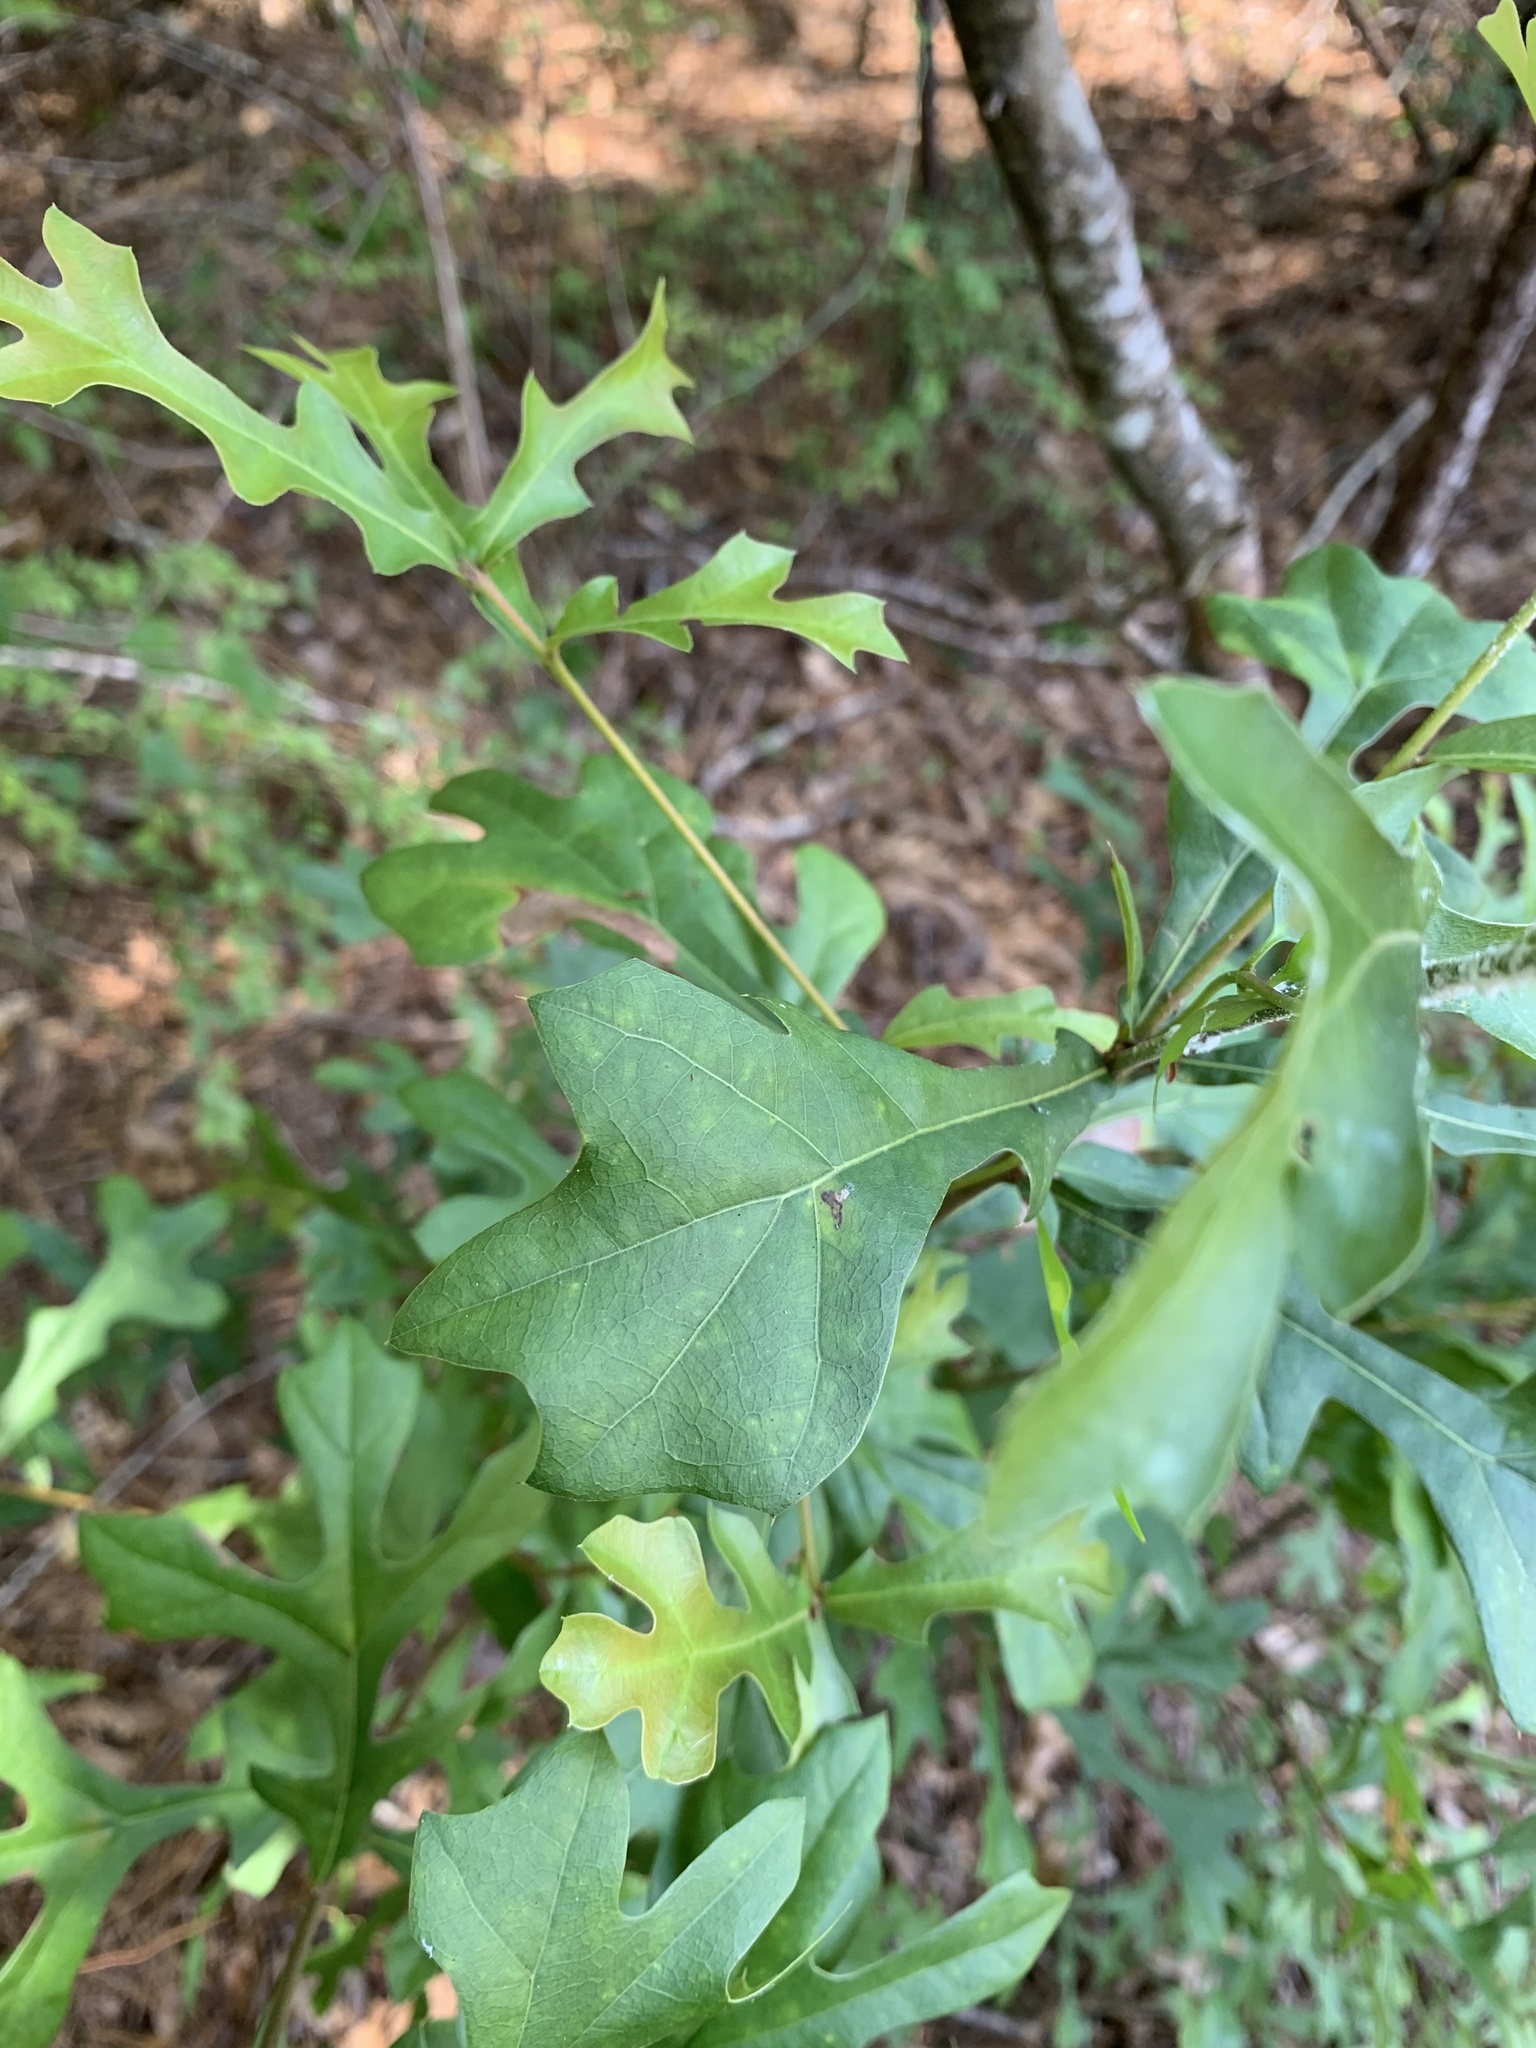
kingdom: Plantae
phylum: Tracheophyta
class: Magnoliopsida
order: Fagales
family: Fagaceae
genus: Quercus
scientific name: Quercus nigra
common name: Water oak
